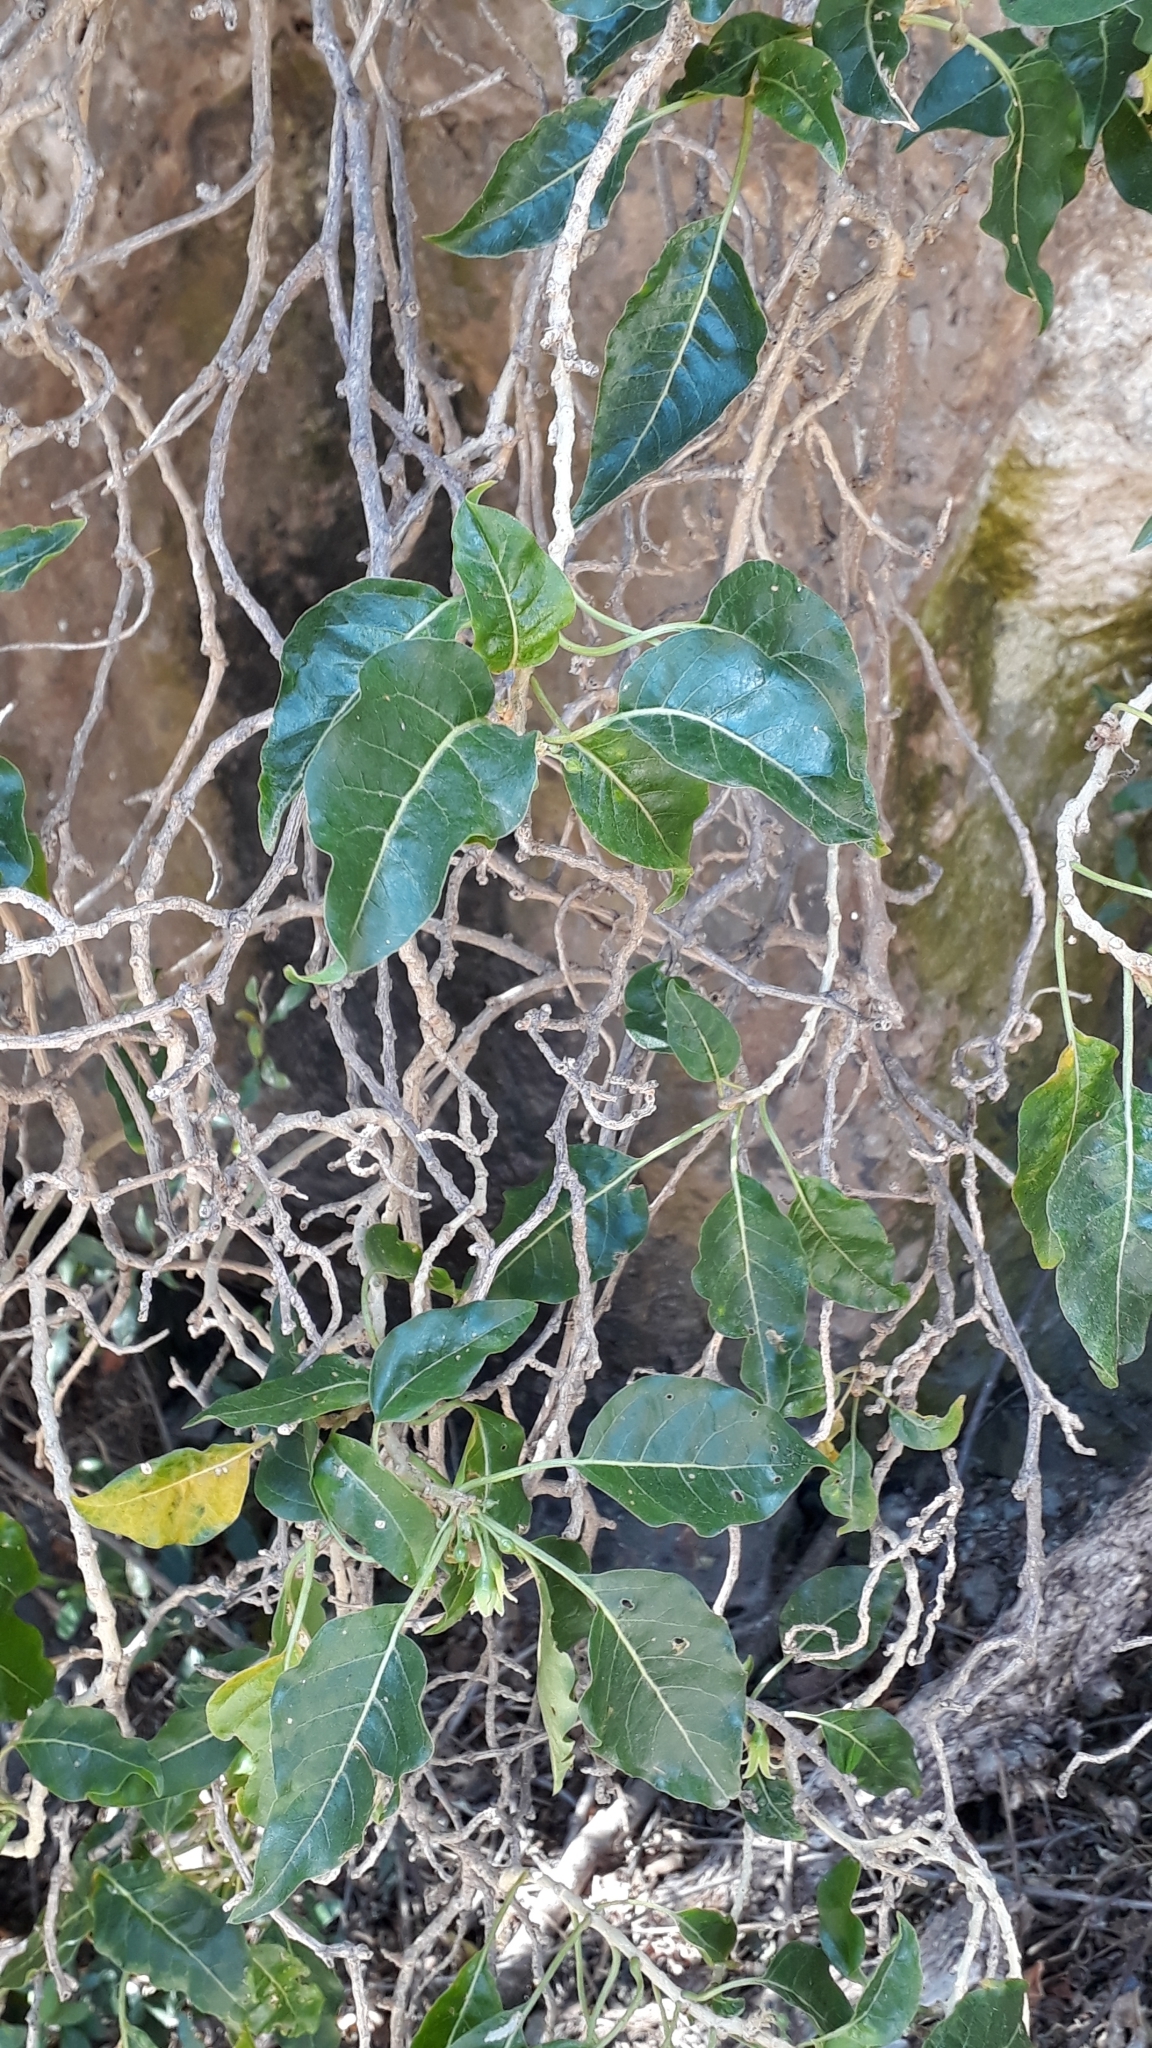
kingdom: Plantae
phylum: Tracheophyta
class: Magnoliopsida
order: Solanales
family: Solanaceae
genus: Withania
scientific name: Withania aristata
